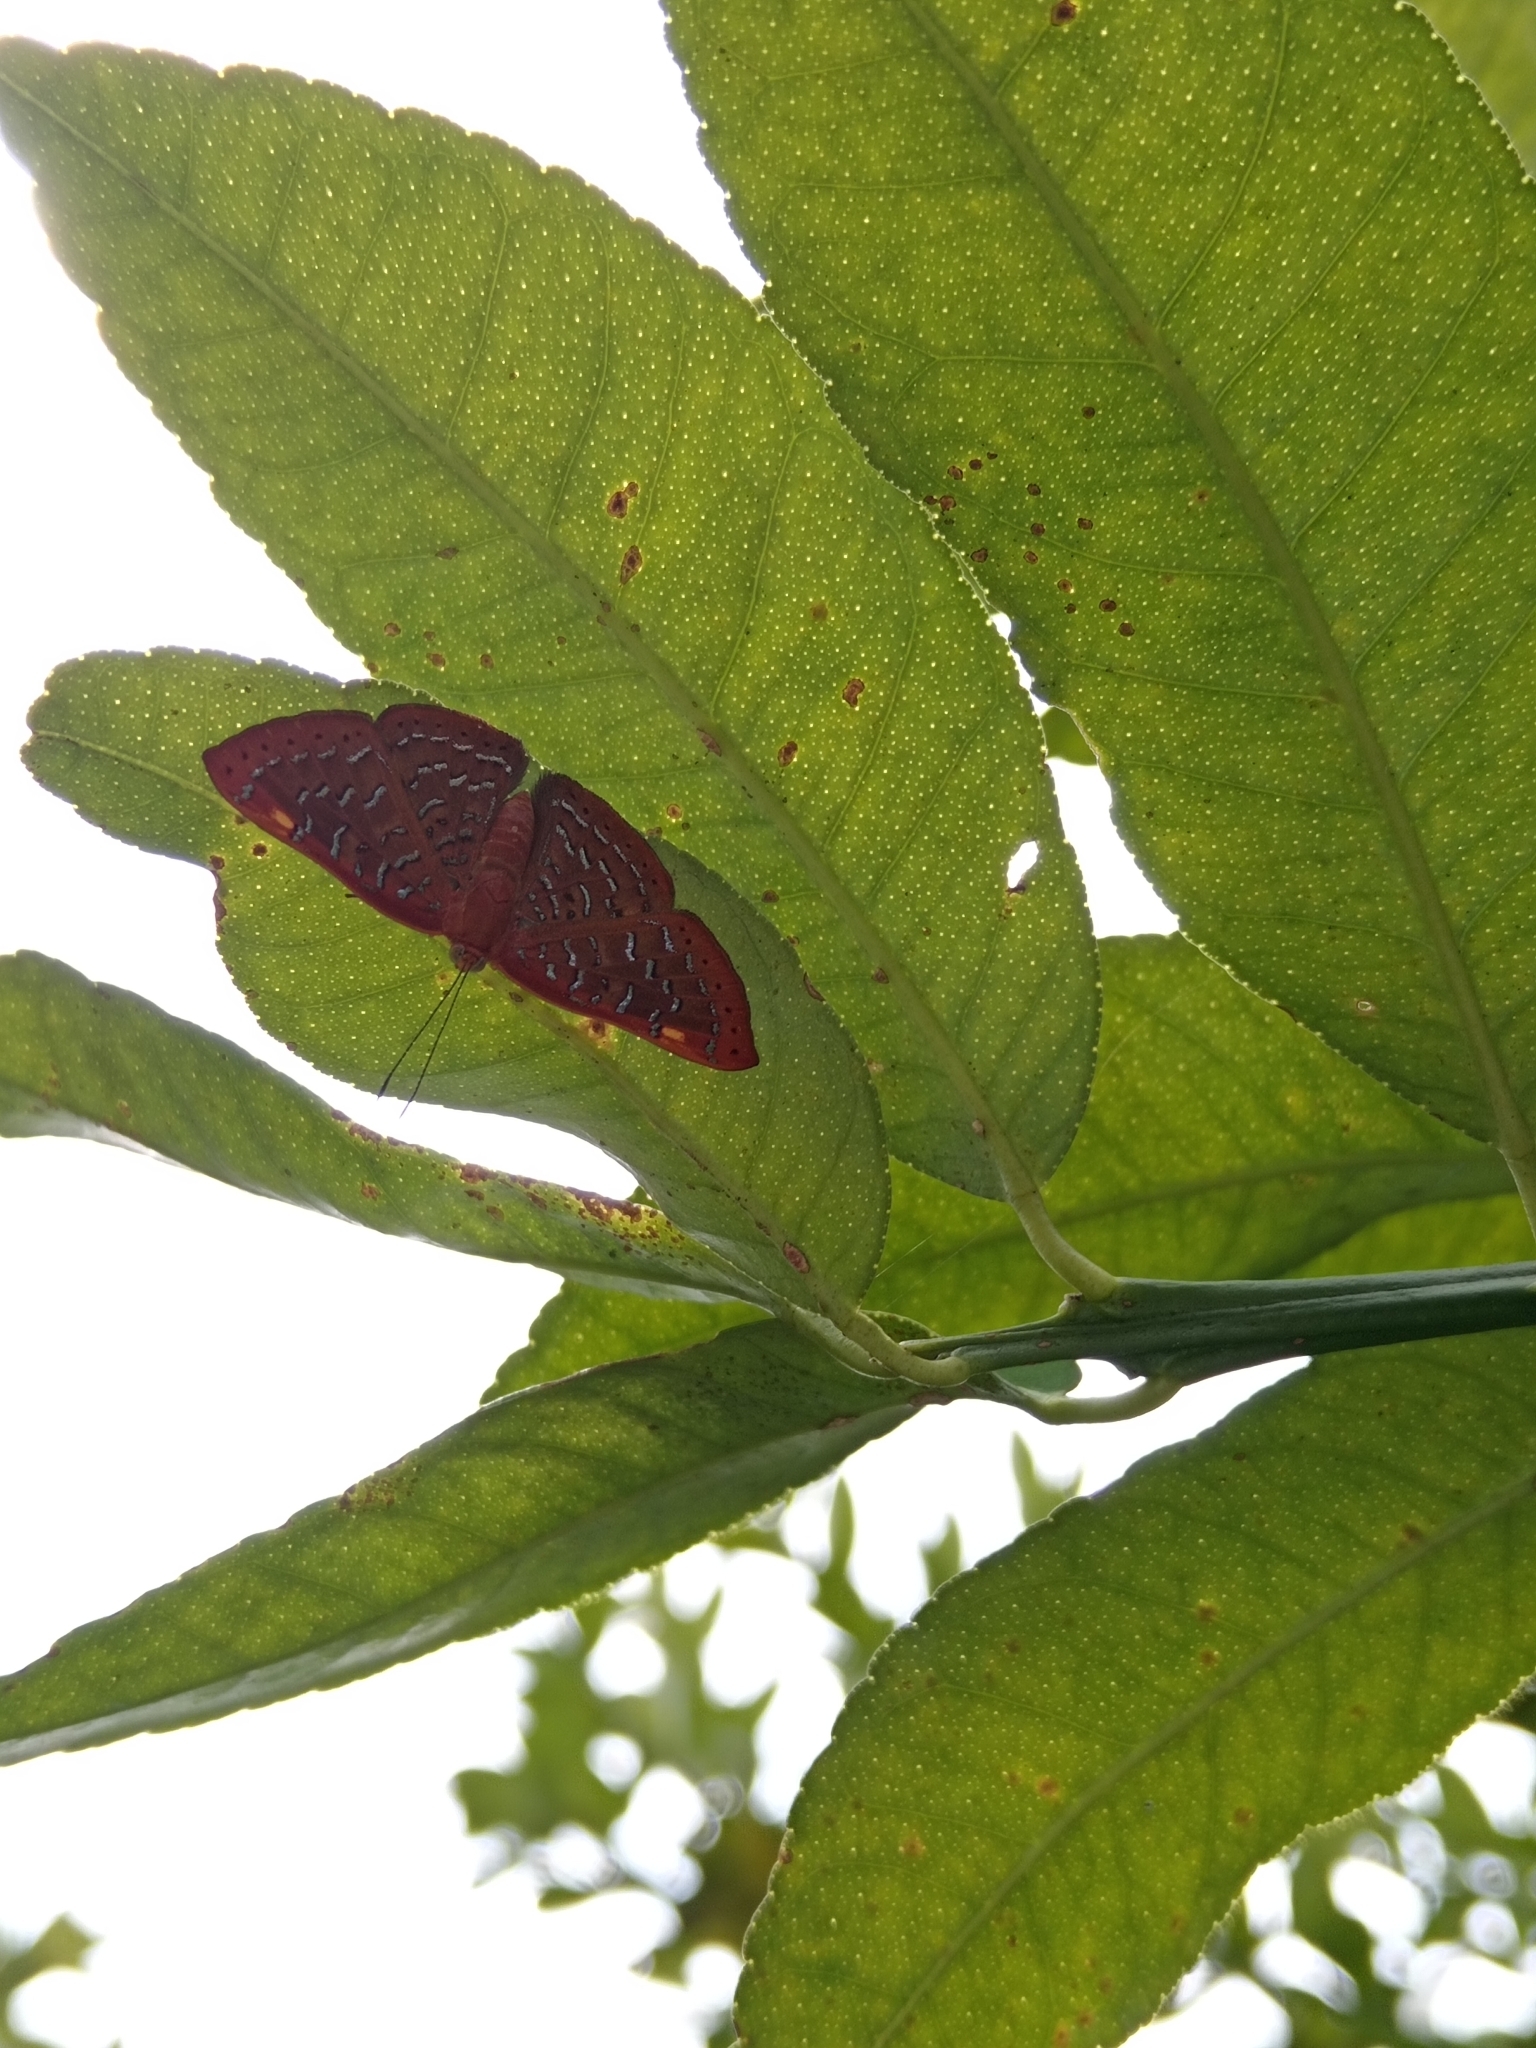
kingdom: Animalia
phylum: Arthropoda
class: Insecta
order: Lepidoptera
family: Lycaenidae
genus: Emesis
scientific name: Emesis cereus
